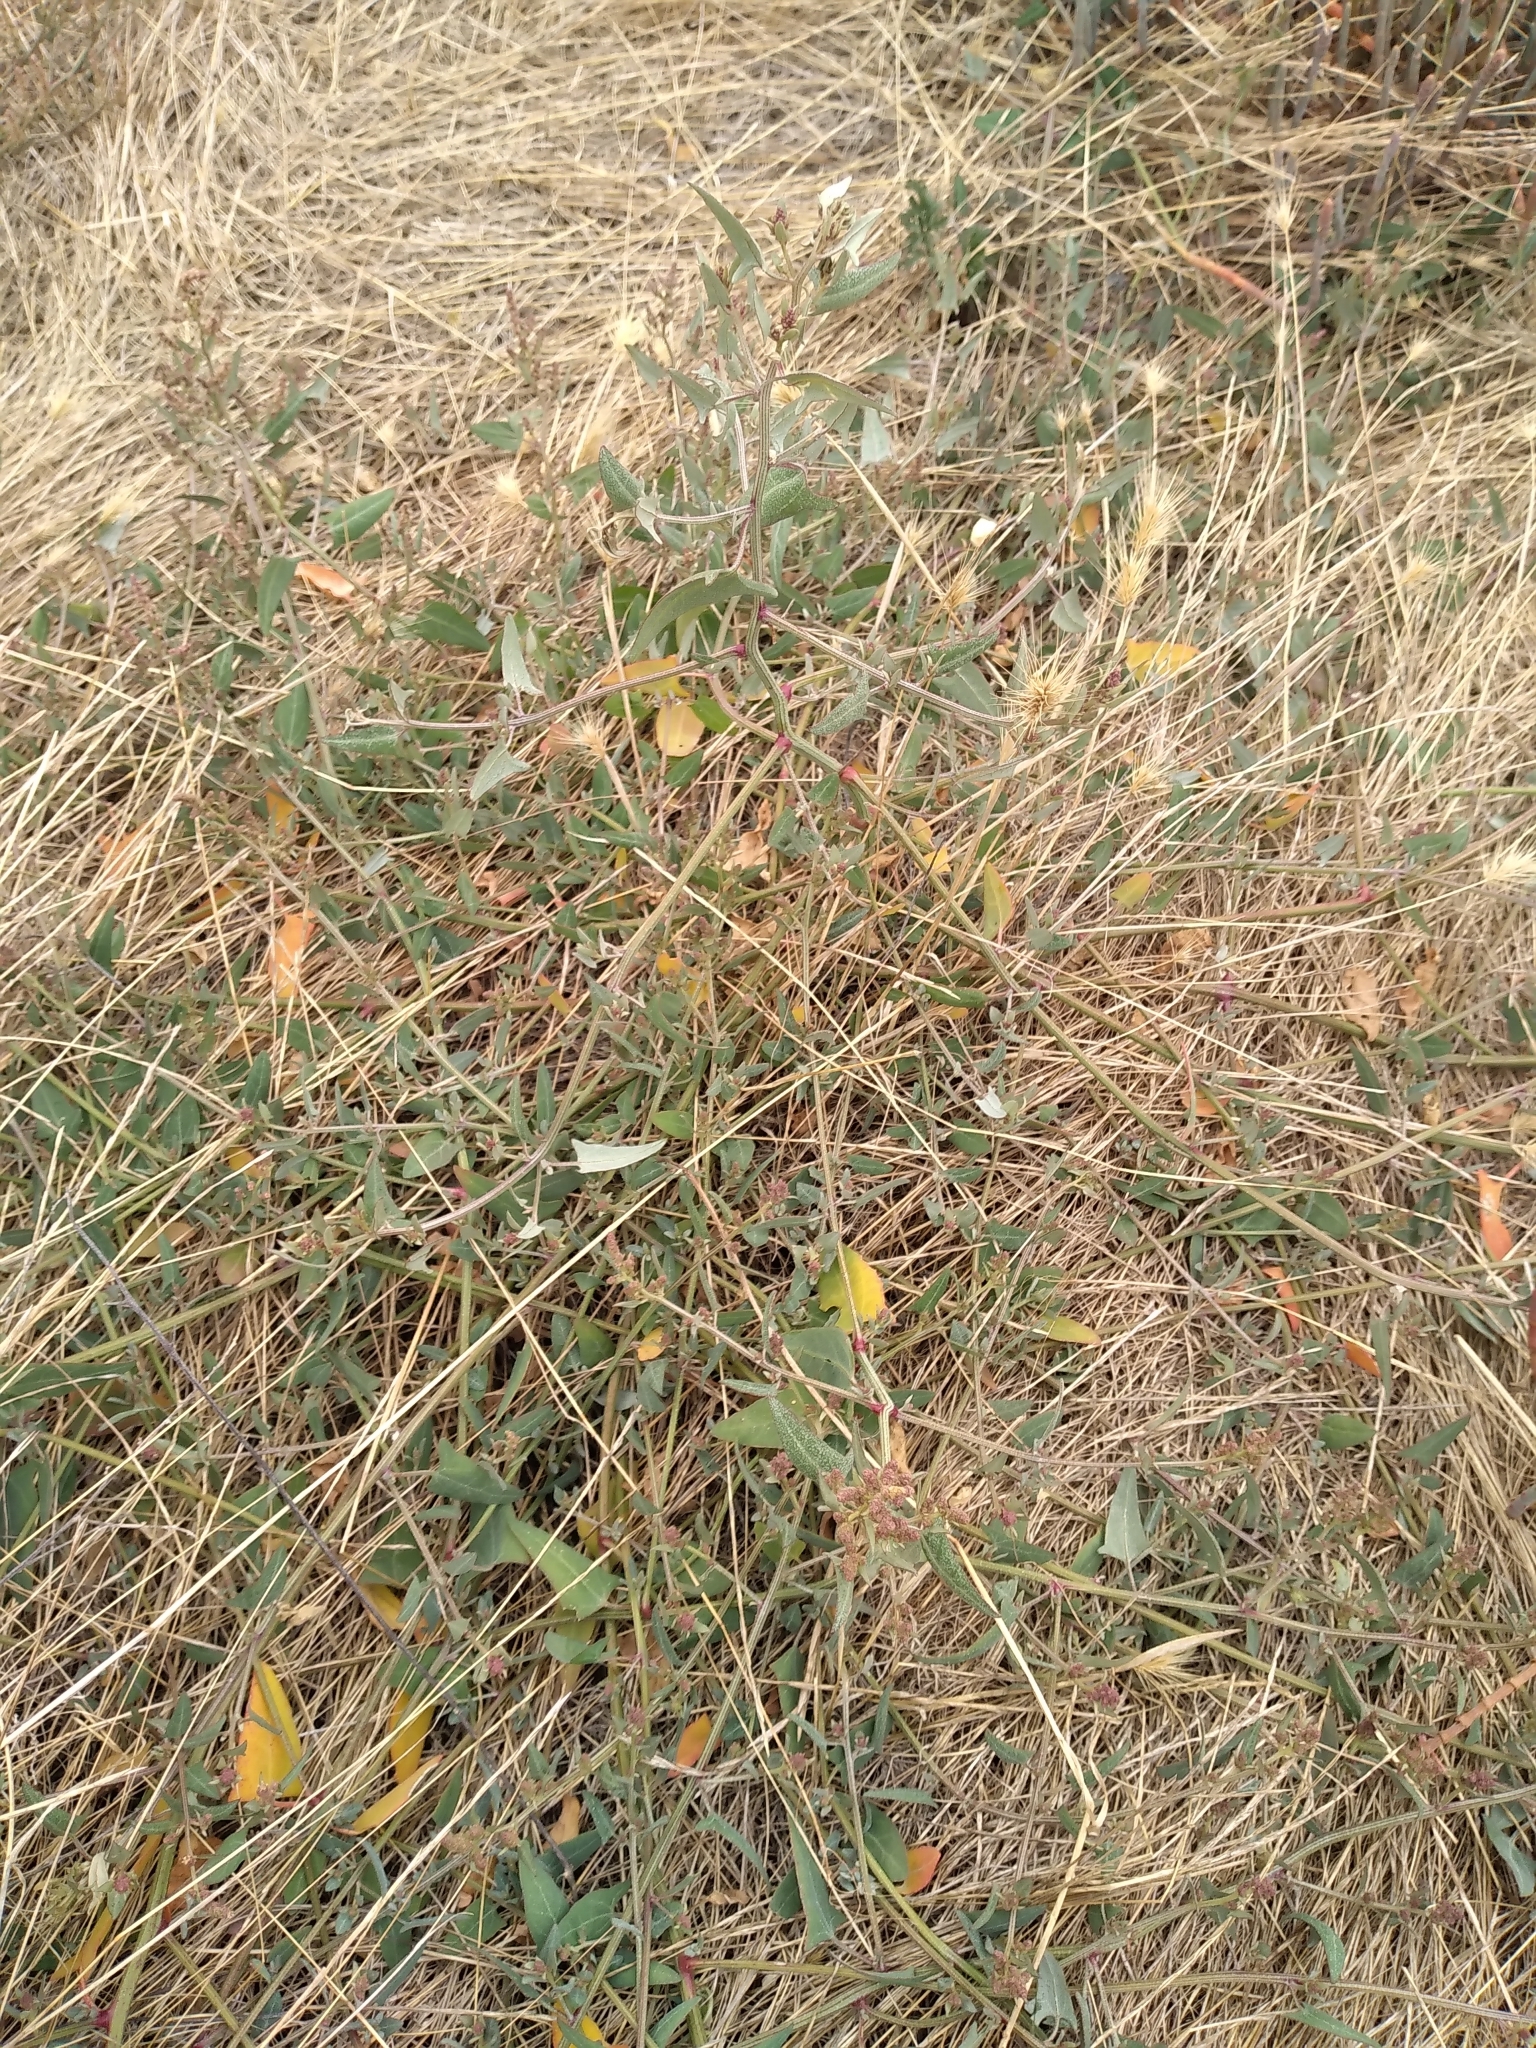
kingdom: Plantae
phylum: Tracheophyta
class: Magnoliopsida
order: Caryophyllales
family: Amaranthaceae
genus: Atriplex
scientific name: Atriplex prostrata
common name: Spear-leaved orache
